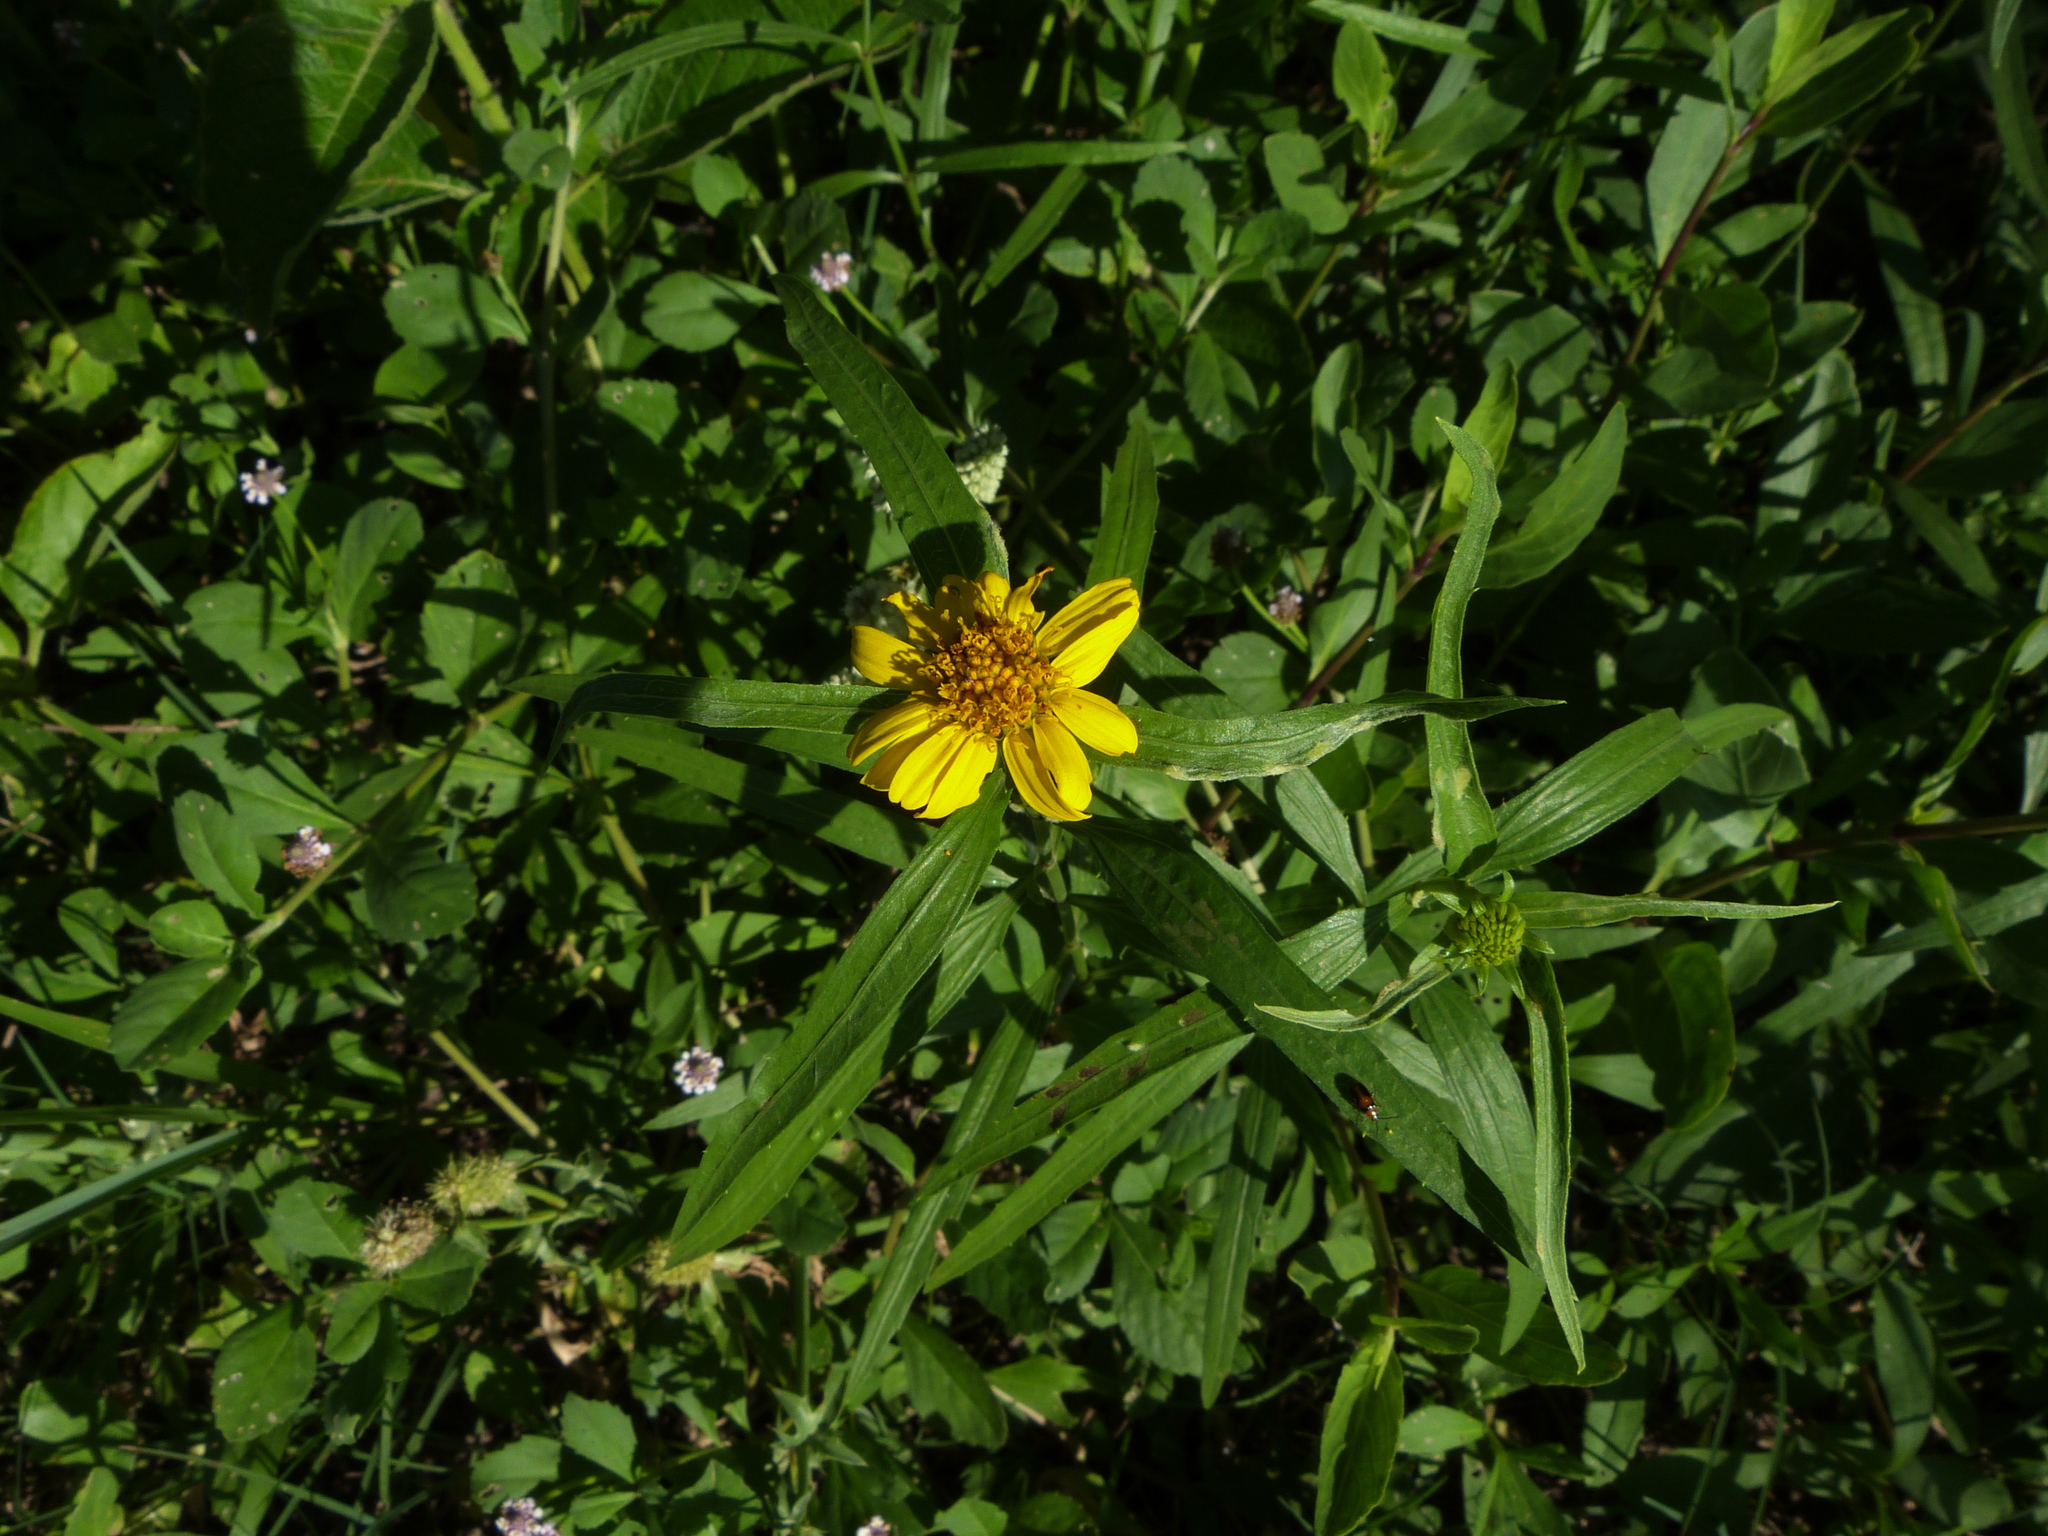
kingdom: Plantae
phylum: Tracheophyta
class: Magnoliopsida
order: Asterales
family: Asteraceae
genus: Pascalia
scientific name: Pascalia glauca
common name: Beach creeping oxeye
